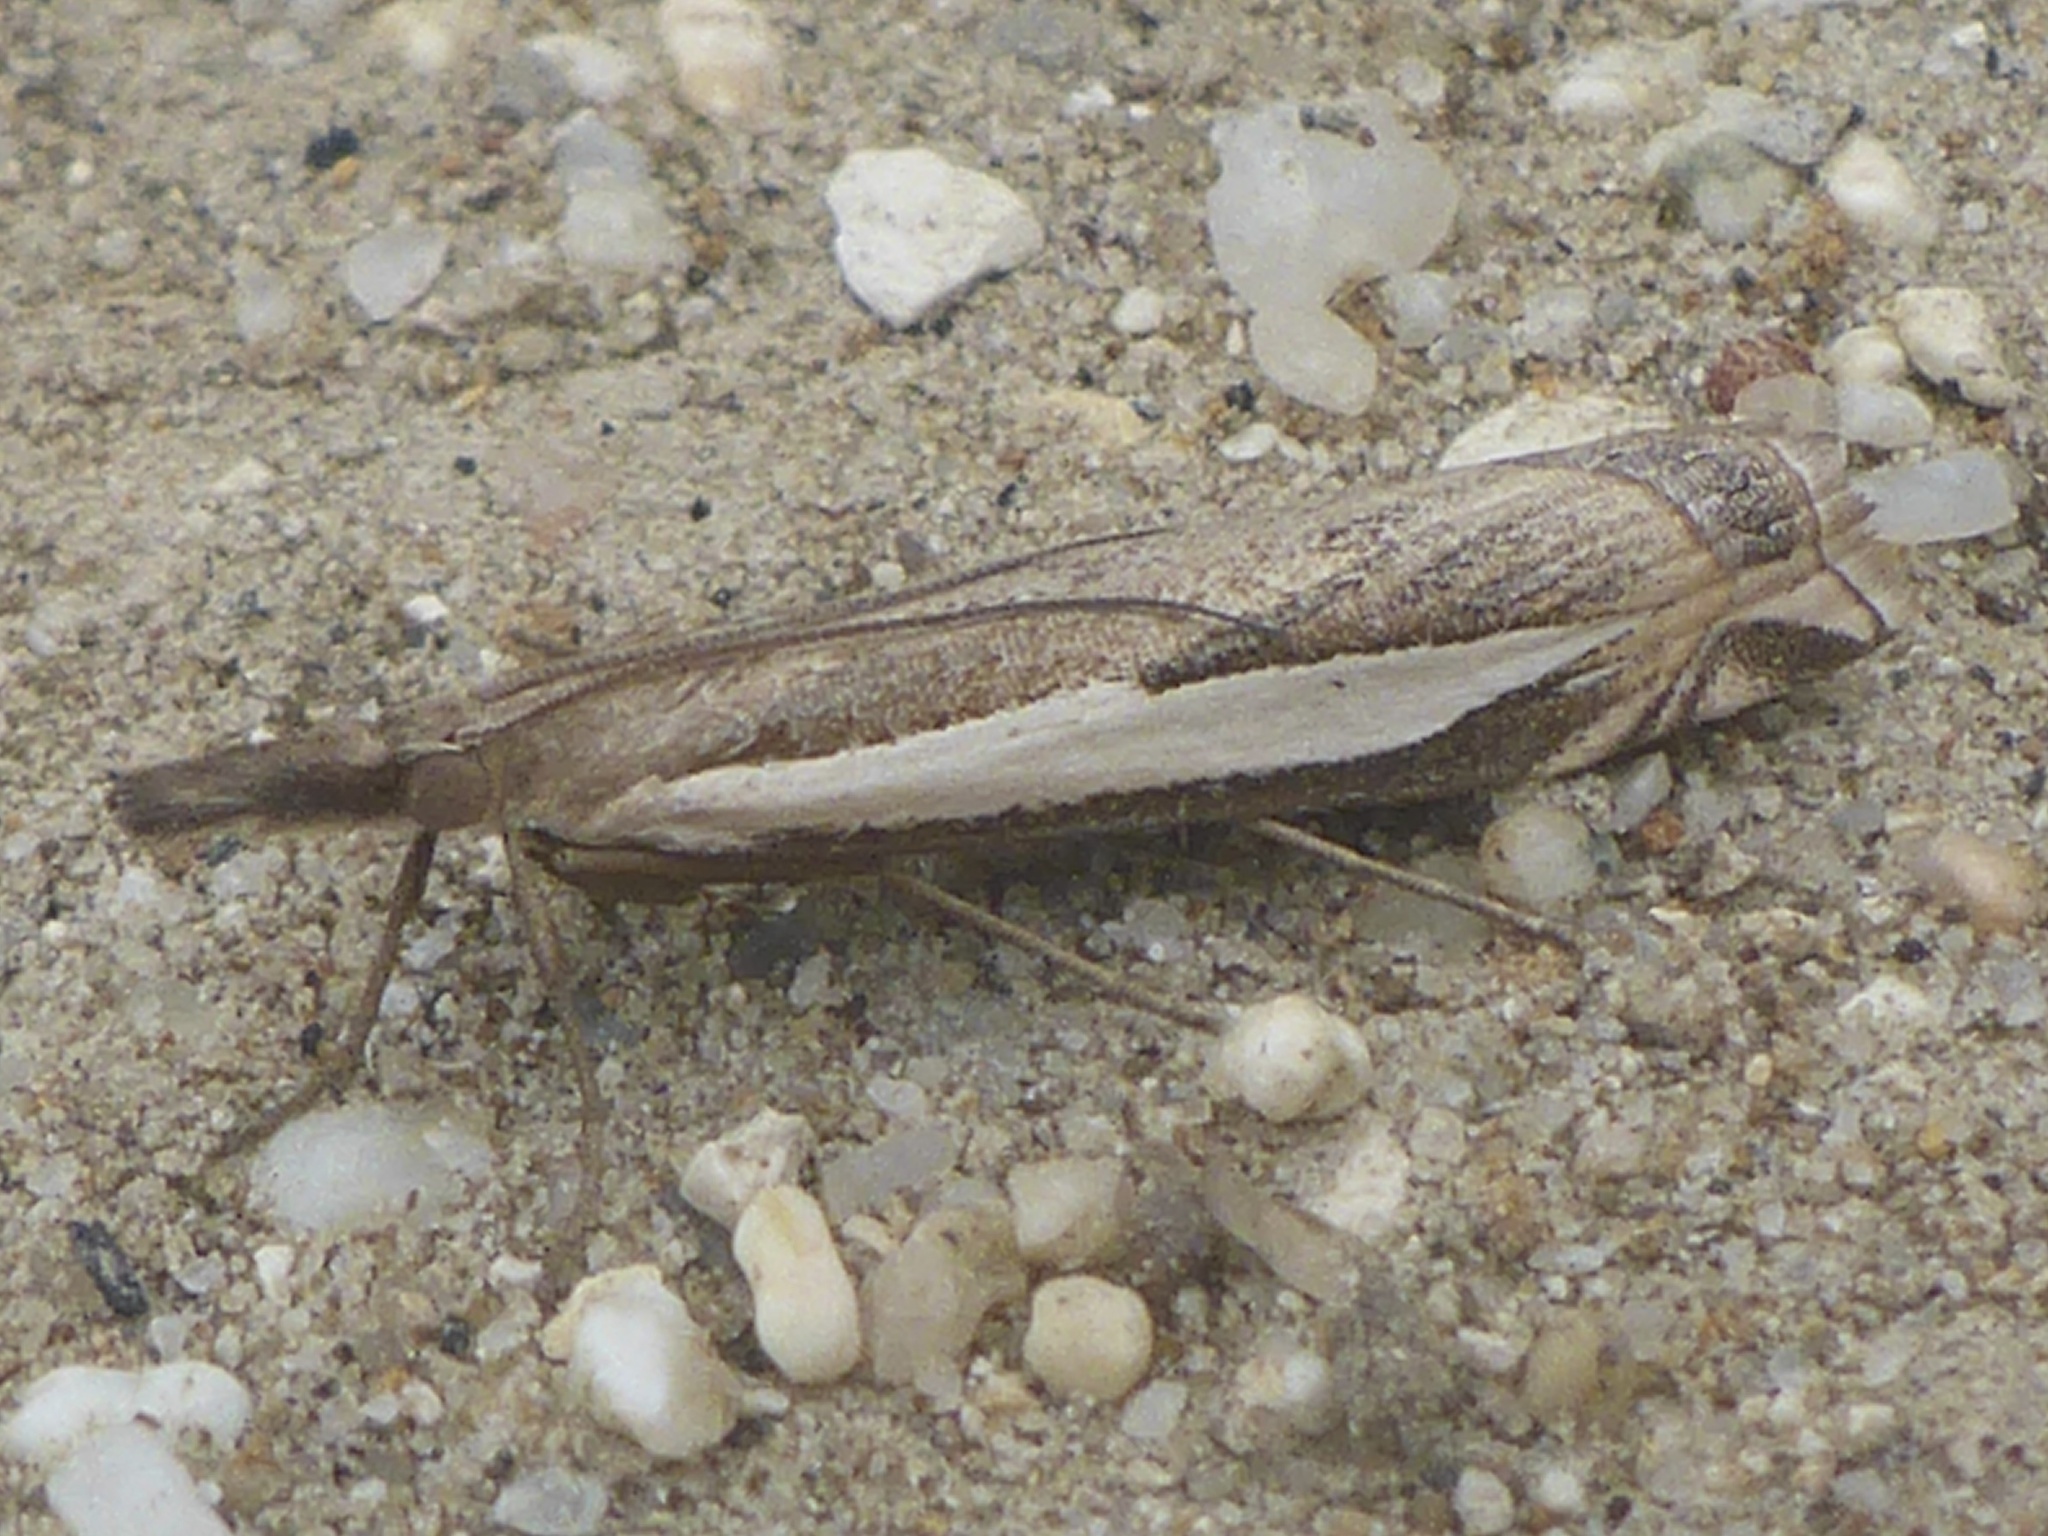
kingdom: Animalia
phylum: Arthropoda
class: Insecta
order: Lepidoptera
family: Crambidae
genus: Crambus
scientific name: Crambus rickseckerellus
